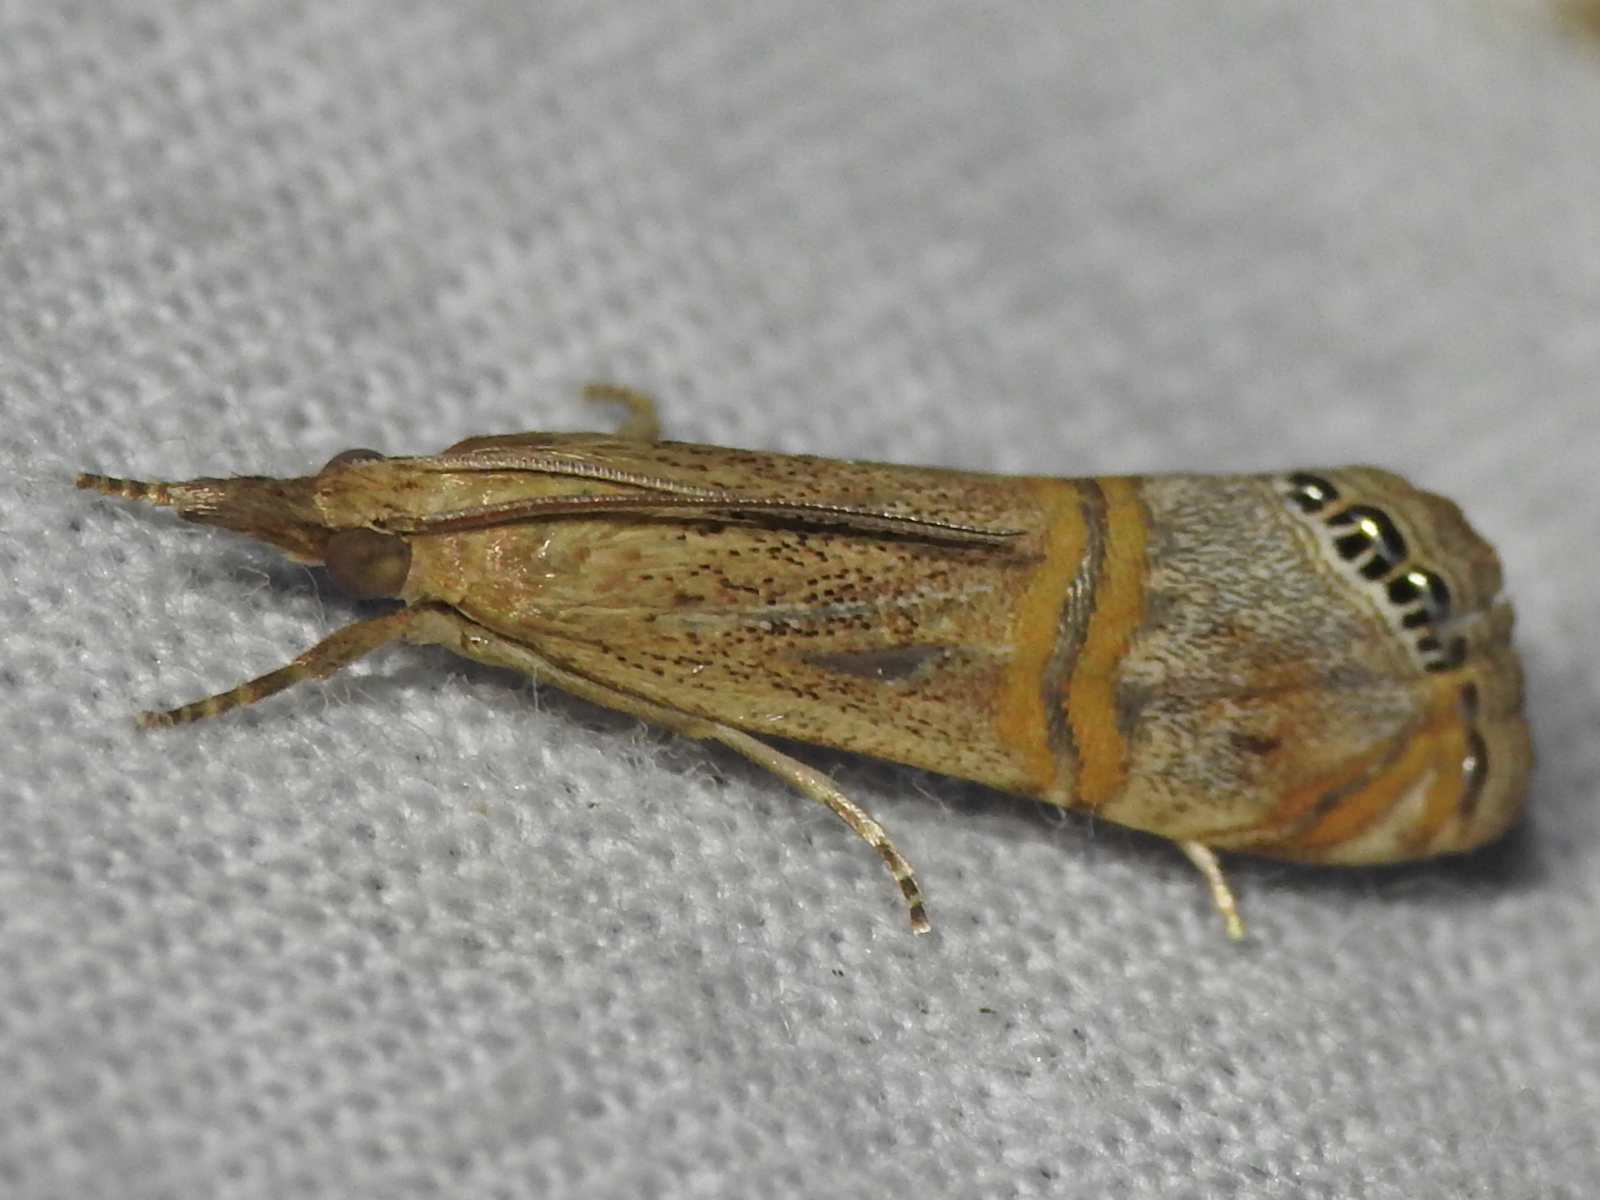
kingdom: Animalia
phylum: Arthropoda
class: Insecta
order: Lepidoptera
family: Crambidae
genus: Euchromius
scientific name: Euchromius ocellea
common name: Necklace veneer moth
